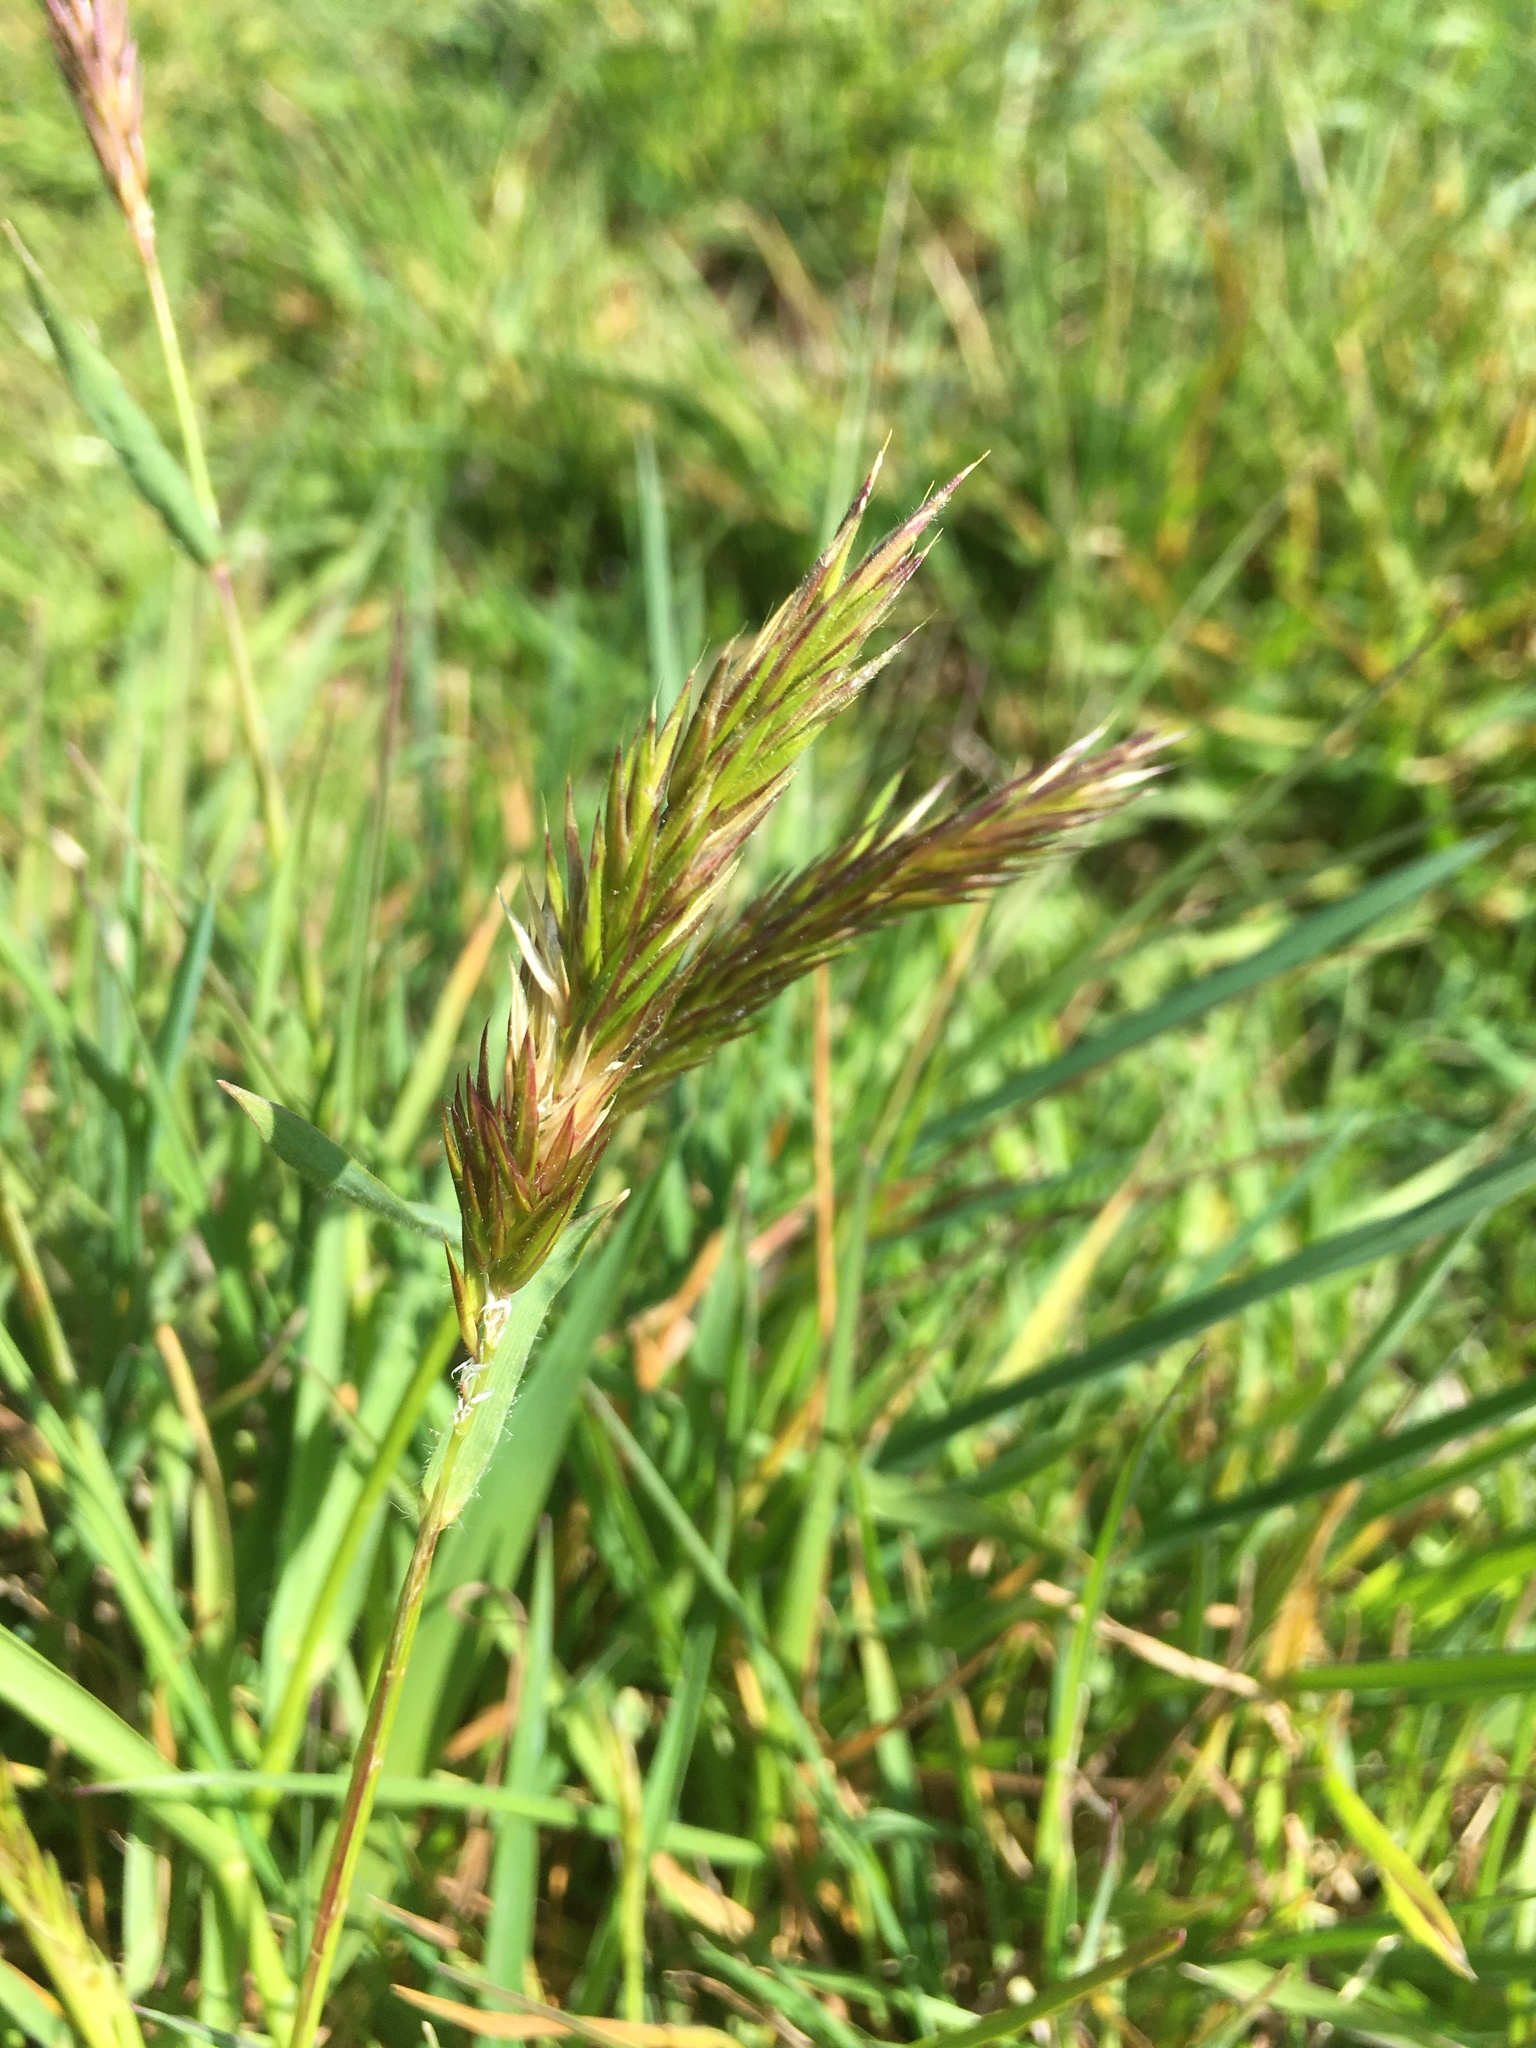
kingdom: Plantae
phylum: Tracheophyta
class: Liliopsida
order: Poales
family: Poaceae
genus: Anthoxanthum
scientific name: Anthoxanthum odoratum
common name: Sweet vernalgrass
